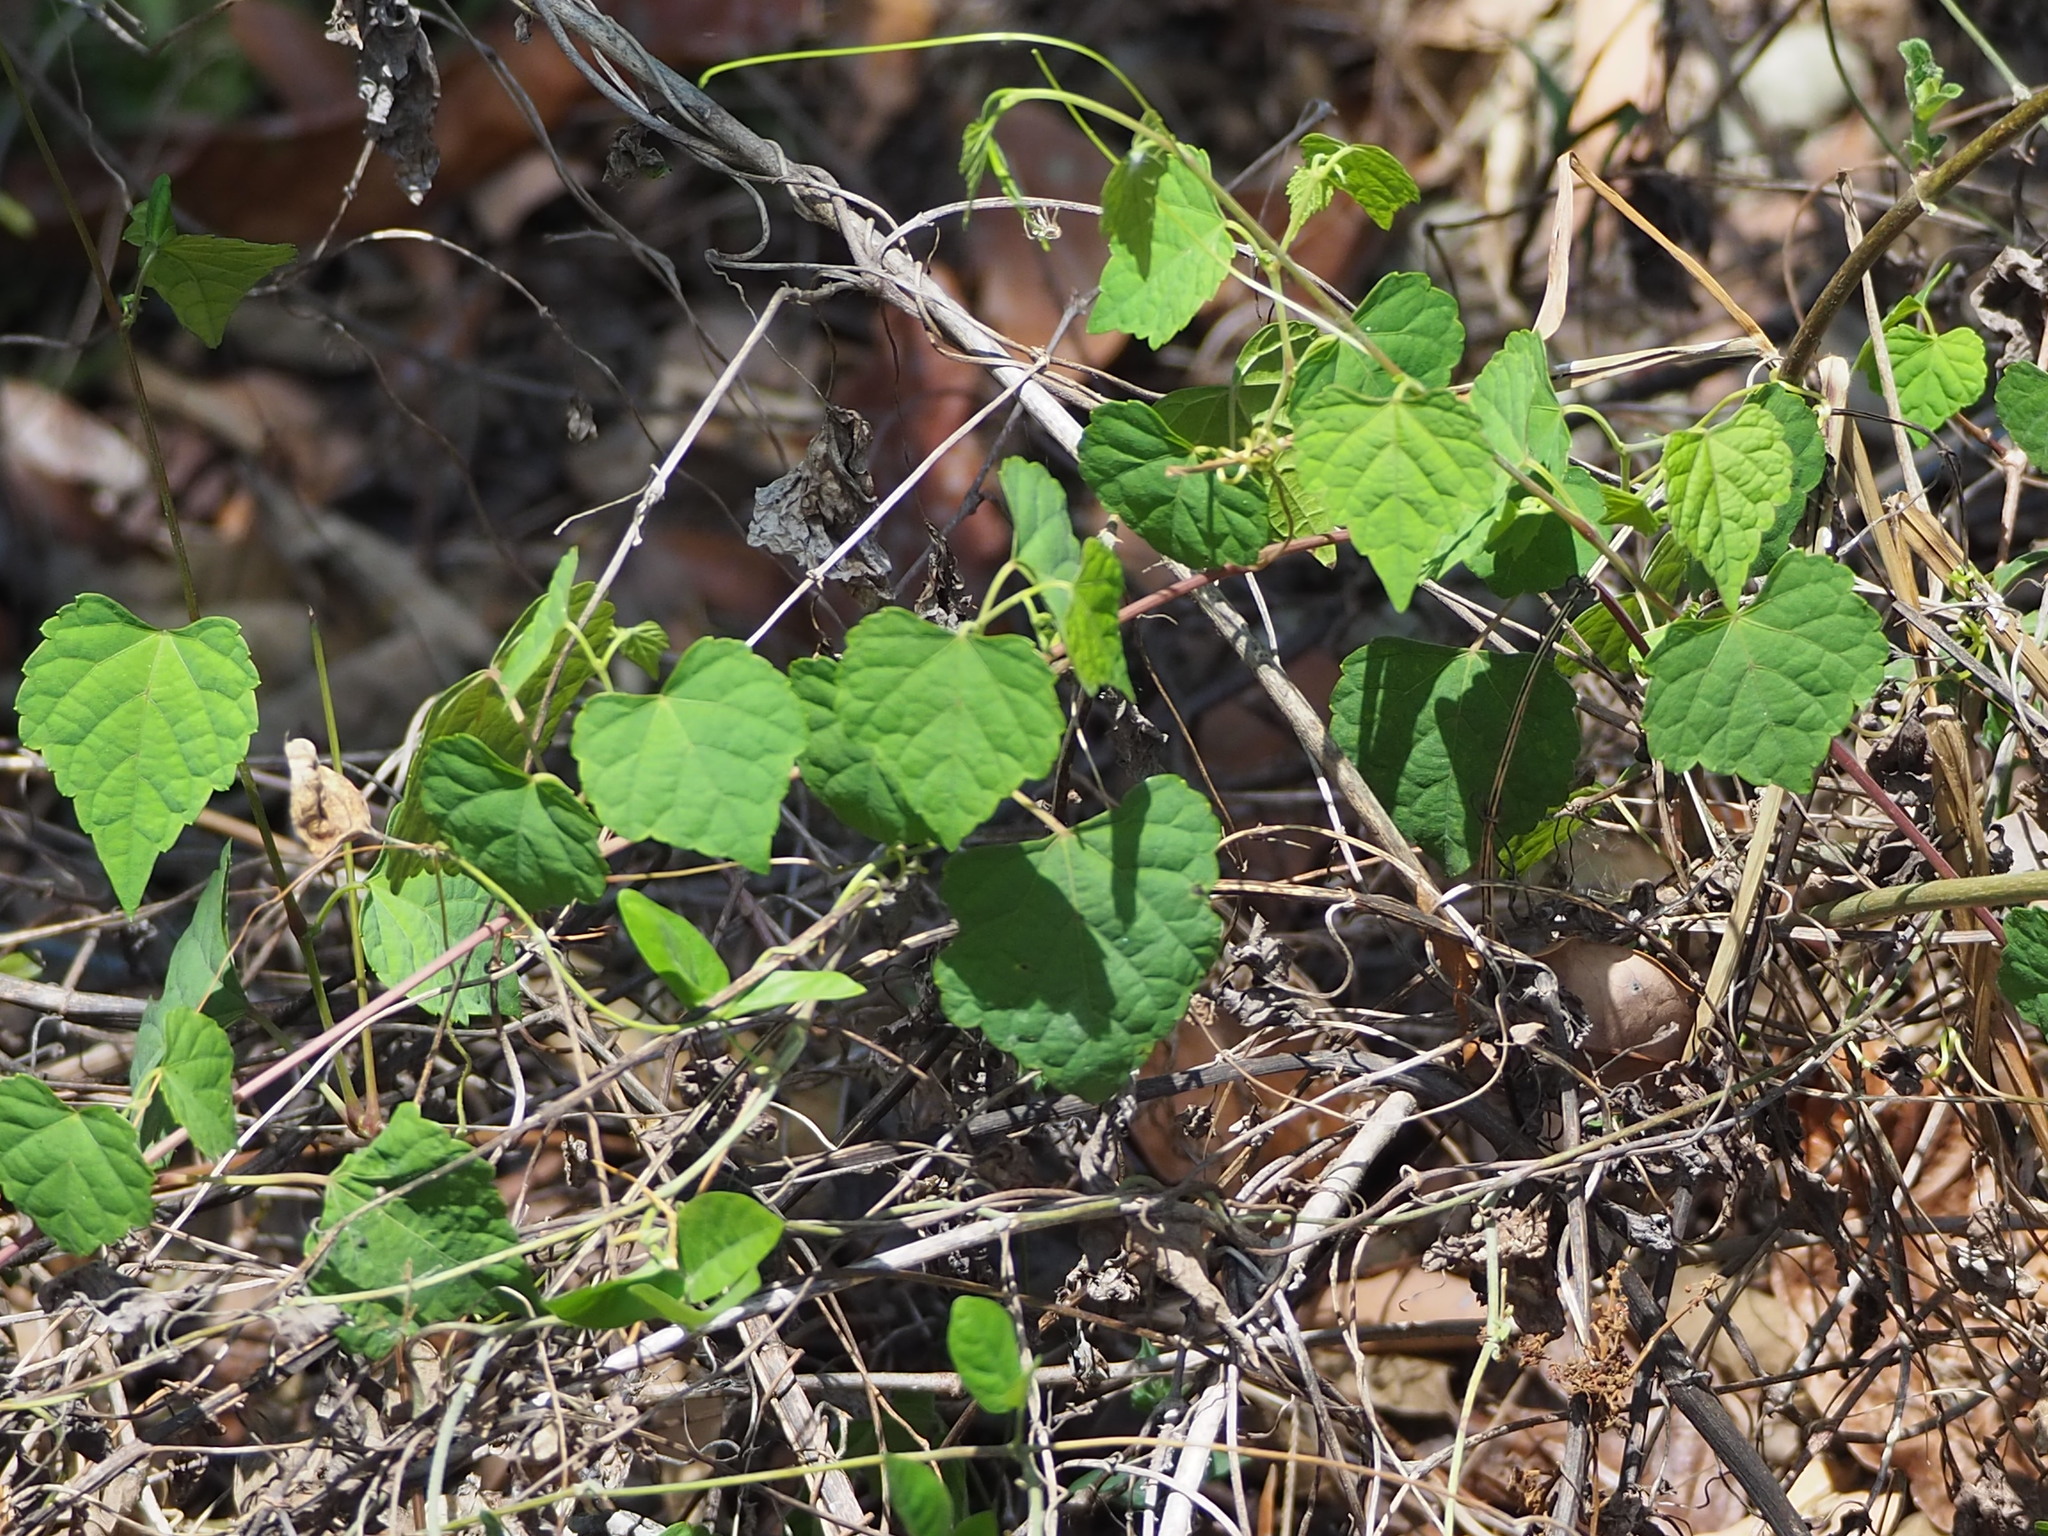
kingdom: Plantae
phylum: Tracheophyta
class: Magnoliopsida
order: Vitales
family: Vitaceae
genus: Ampelopsis
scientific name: Ampelopsis glandulosa
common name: Amur peppervine
